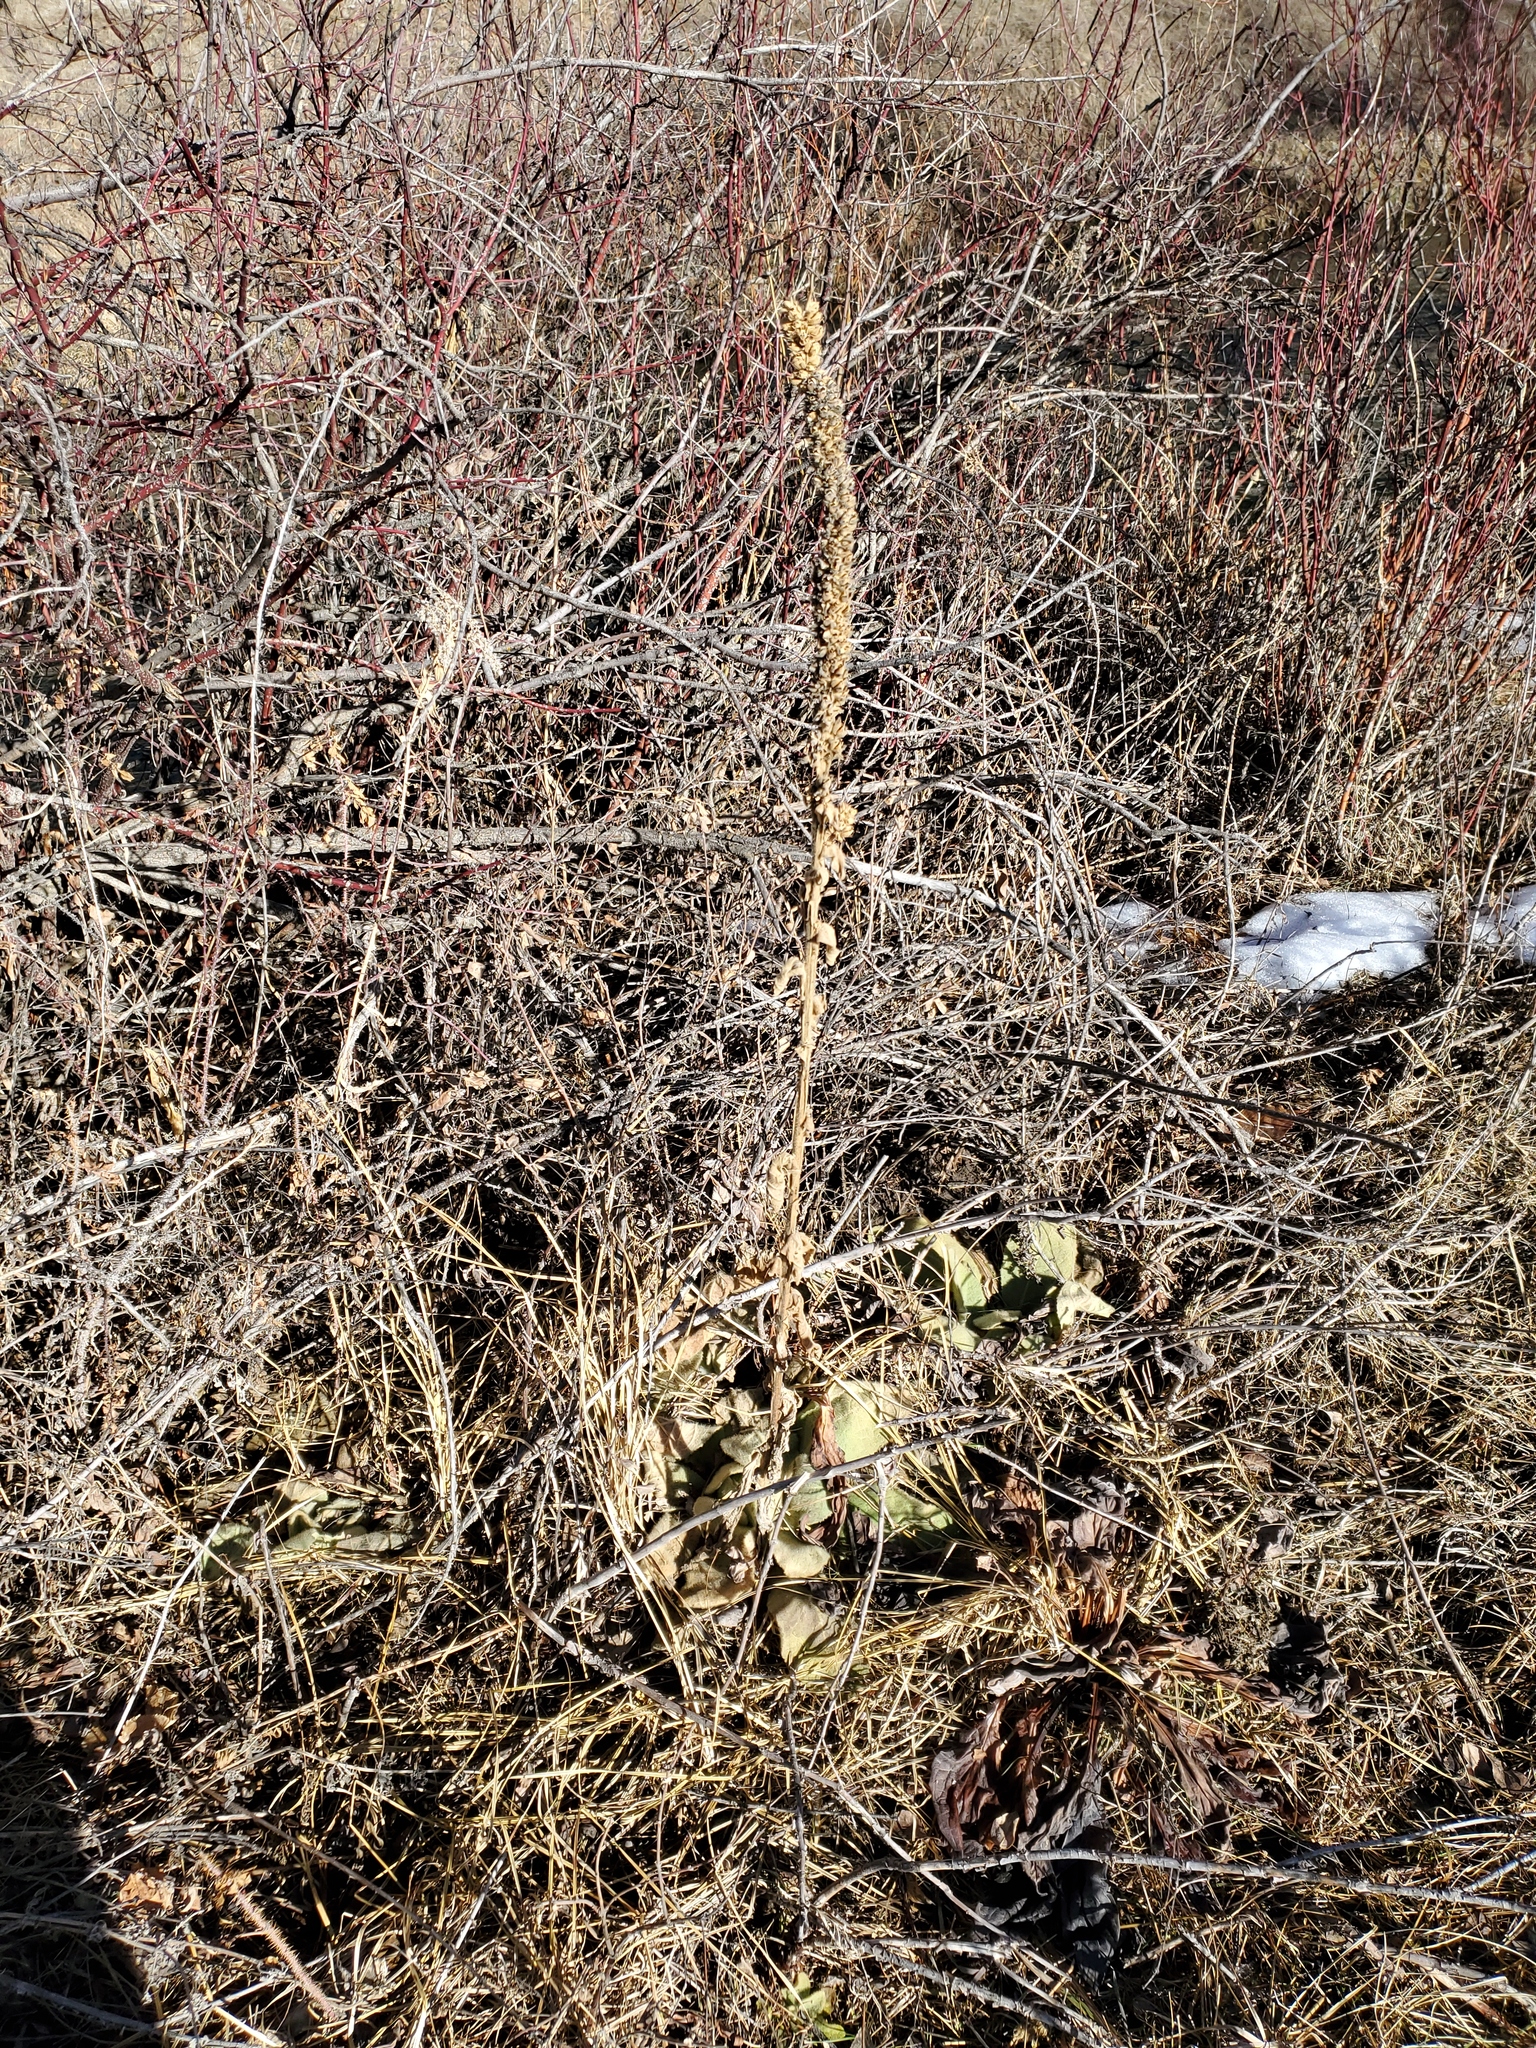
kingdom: Plantae
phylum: Tracheophyta
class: Magnoliopsida
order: Lamiales
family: Scrophulariaceae
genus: Verbascum
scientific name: Verbascum thapsus
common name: Common mullein
